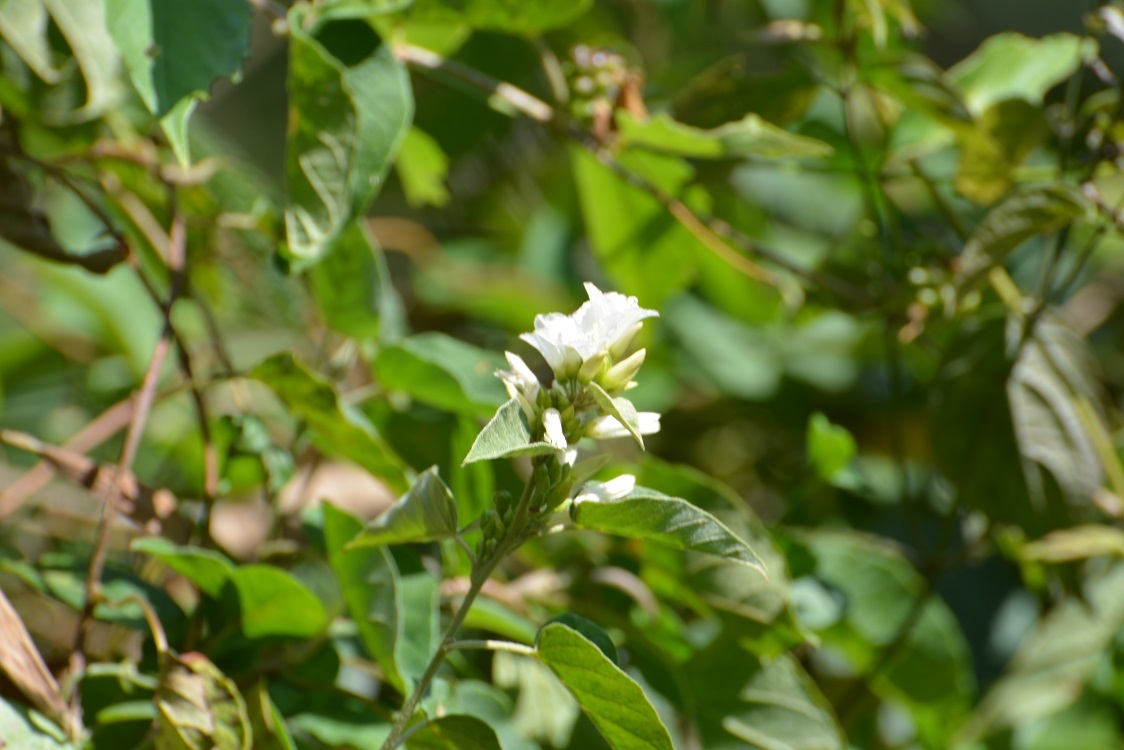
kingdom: Plantae
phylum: Tracheophyta
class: Magnoliopsida
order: Solanales
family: Convolvulaceae
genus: Jacquemontia
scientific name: Jacquemontia nodiflora
